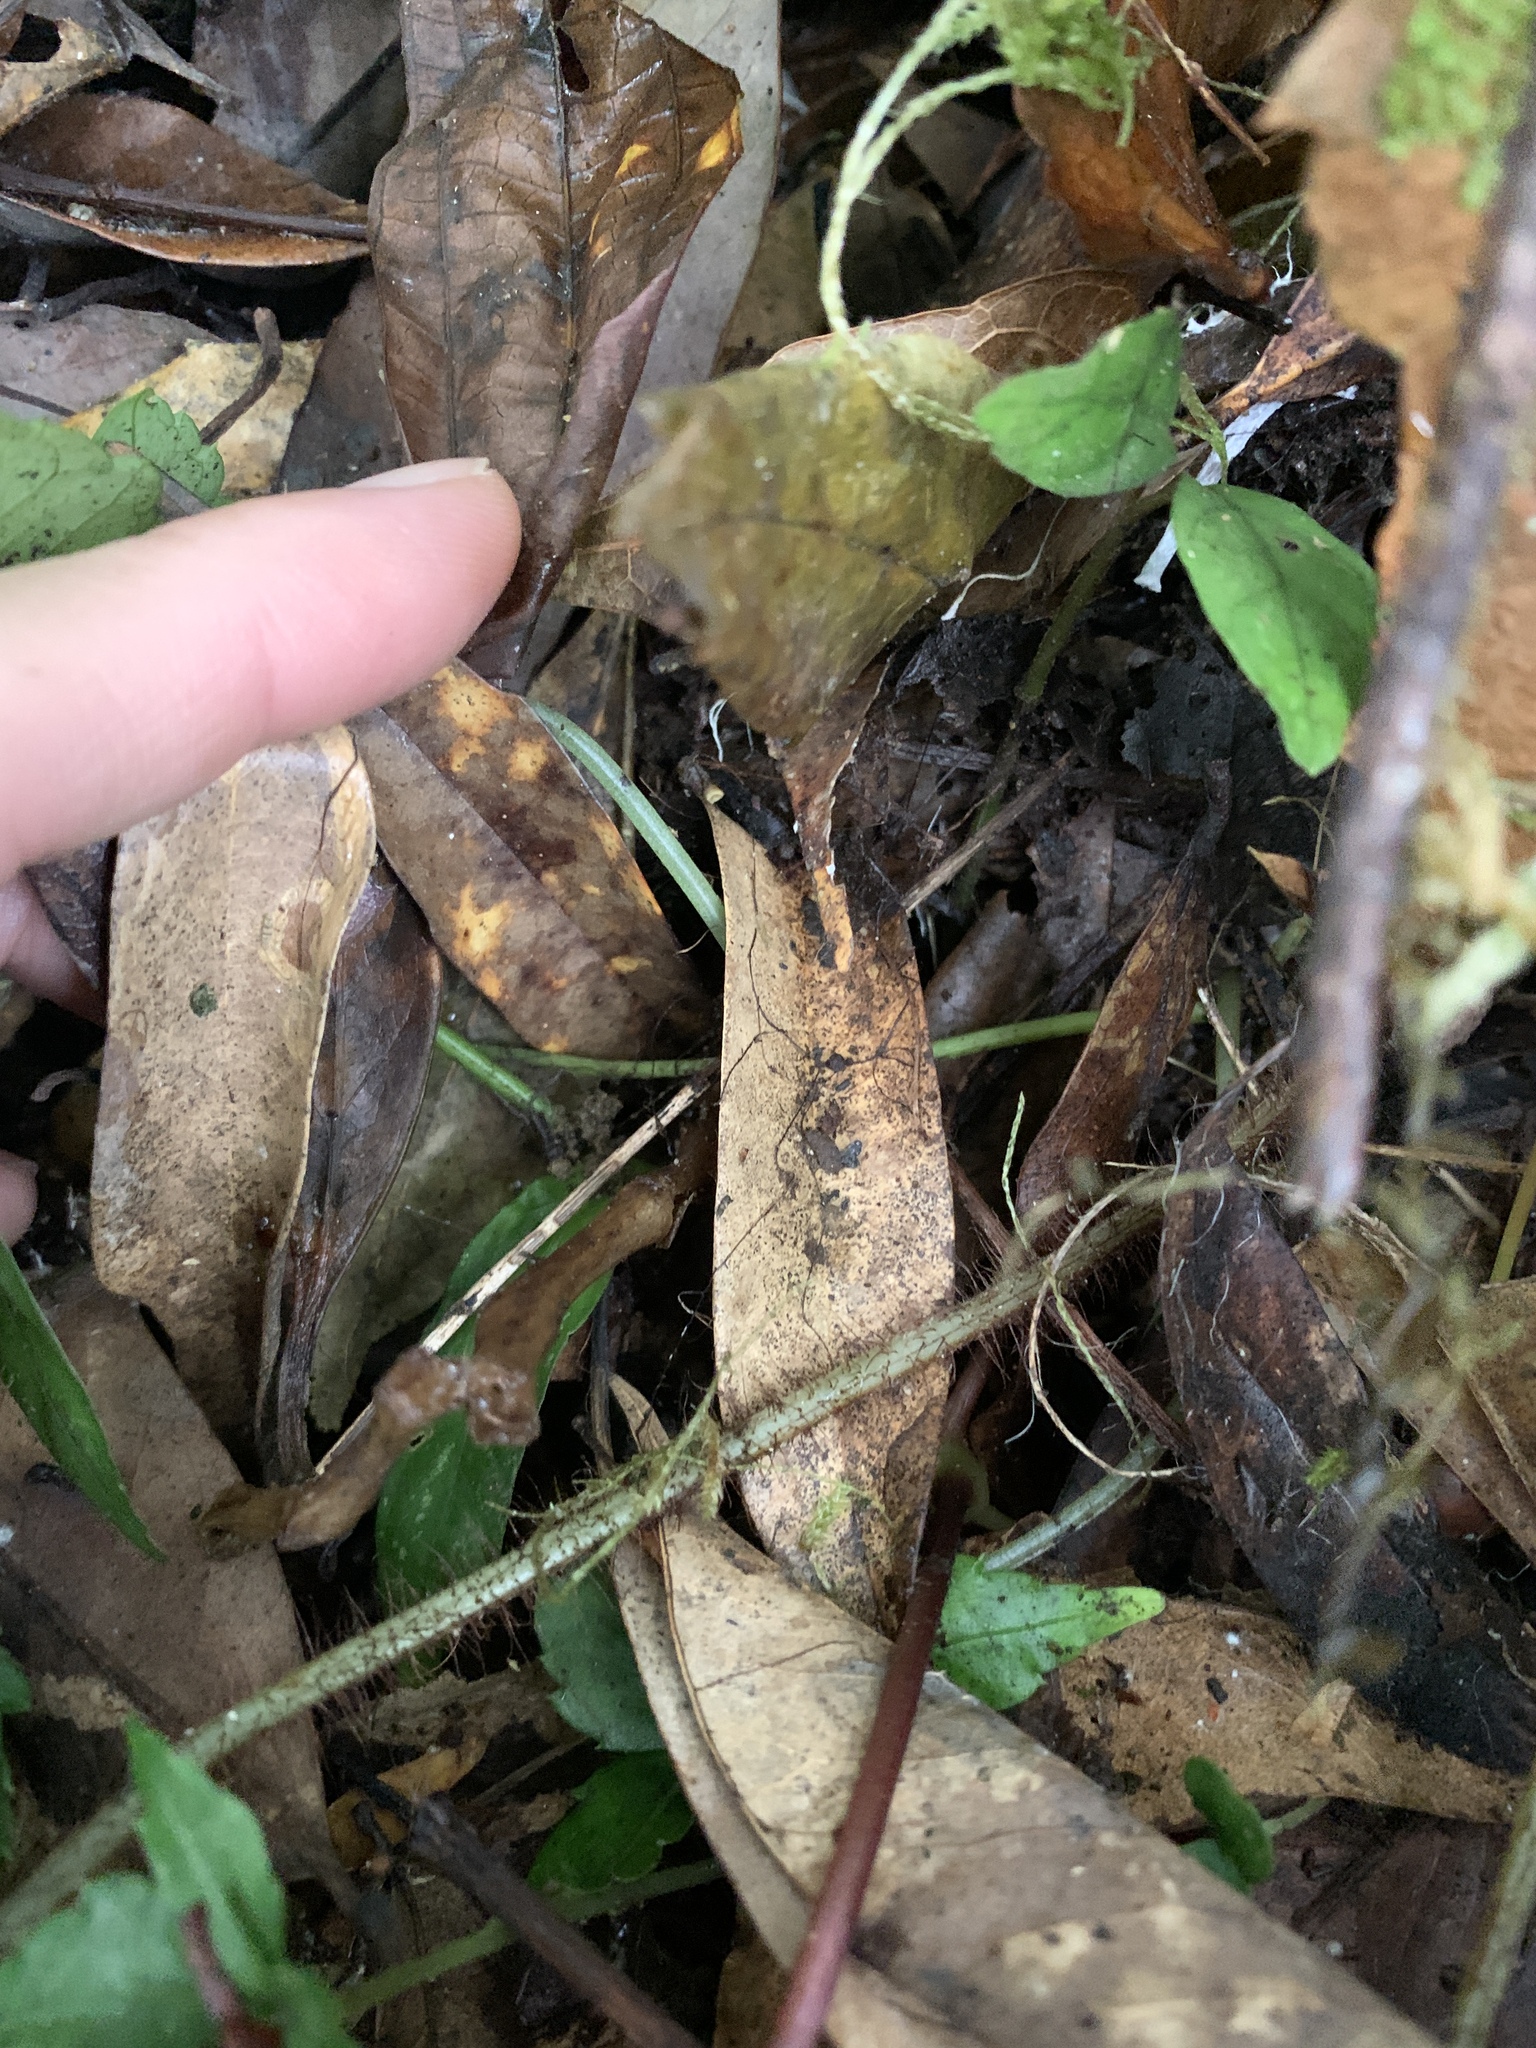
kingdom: Plantae
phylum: Tracheophyta
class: Polypodiopsida
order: Polypodiales
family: Dryopteridaceae
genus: Ctenitis
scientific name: Ctenitis eatonii
